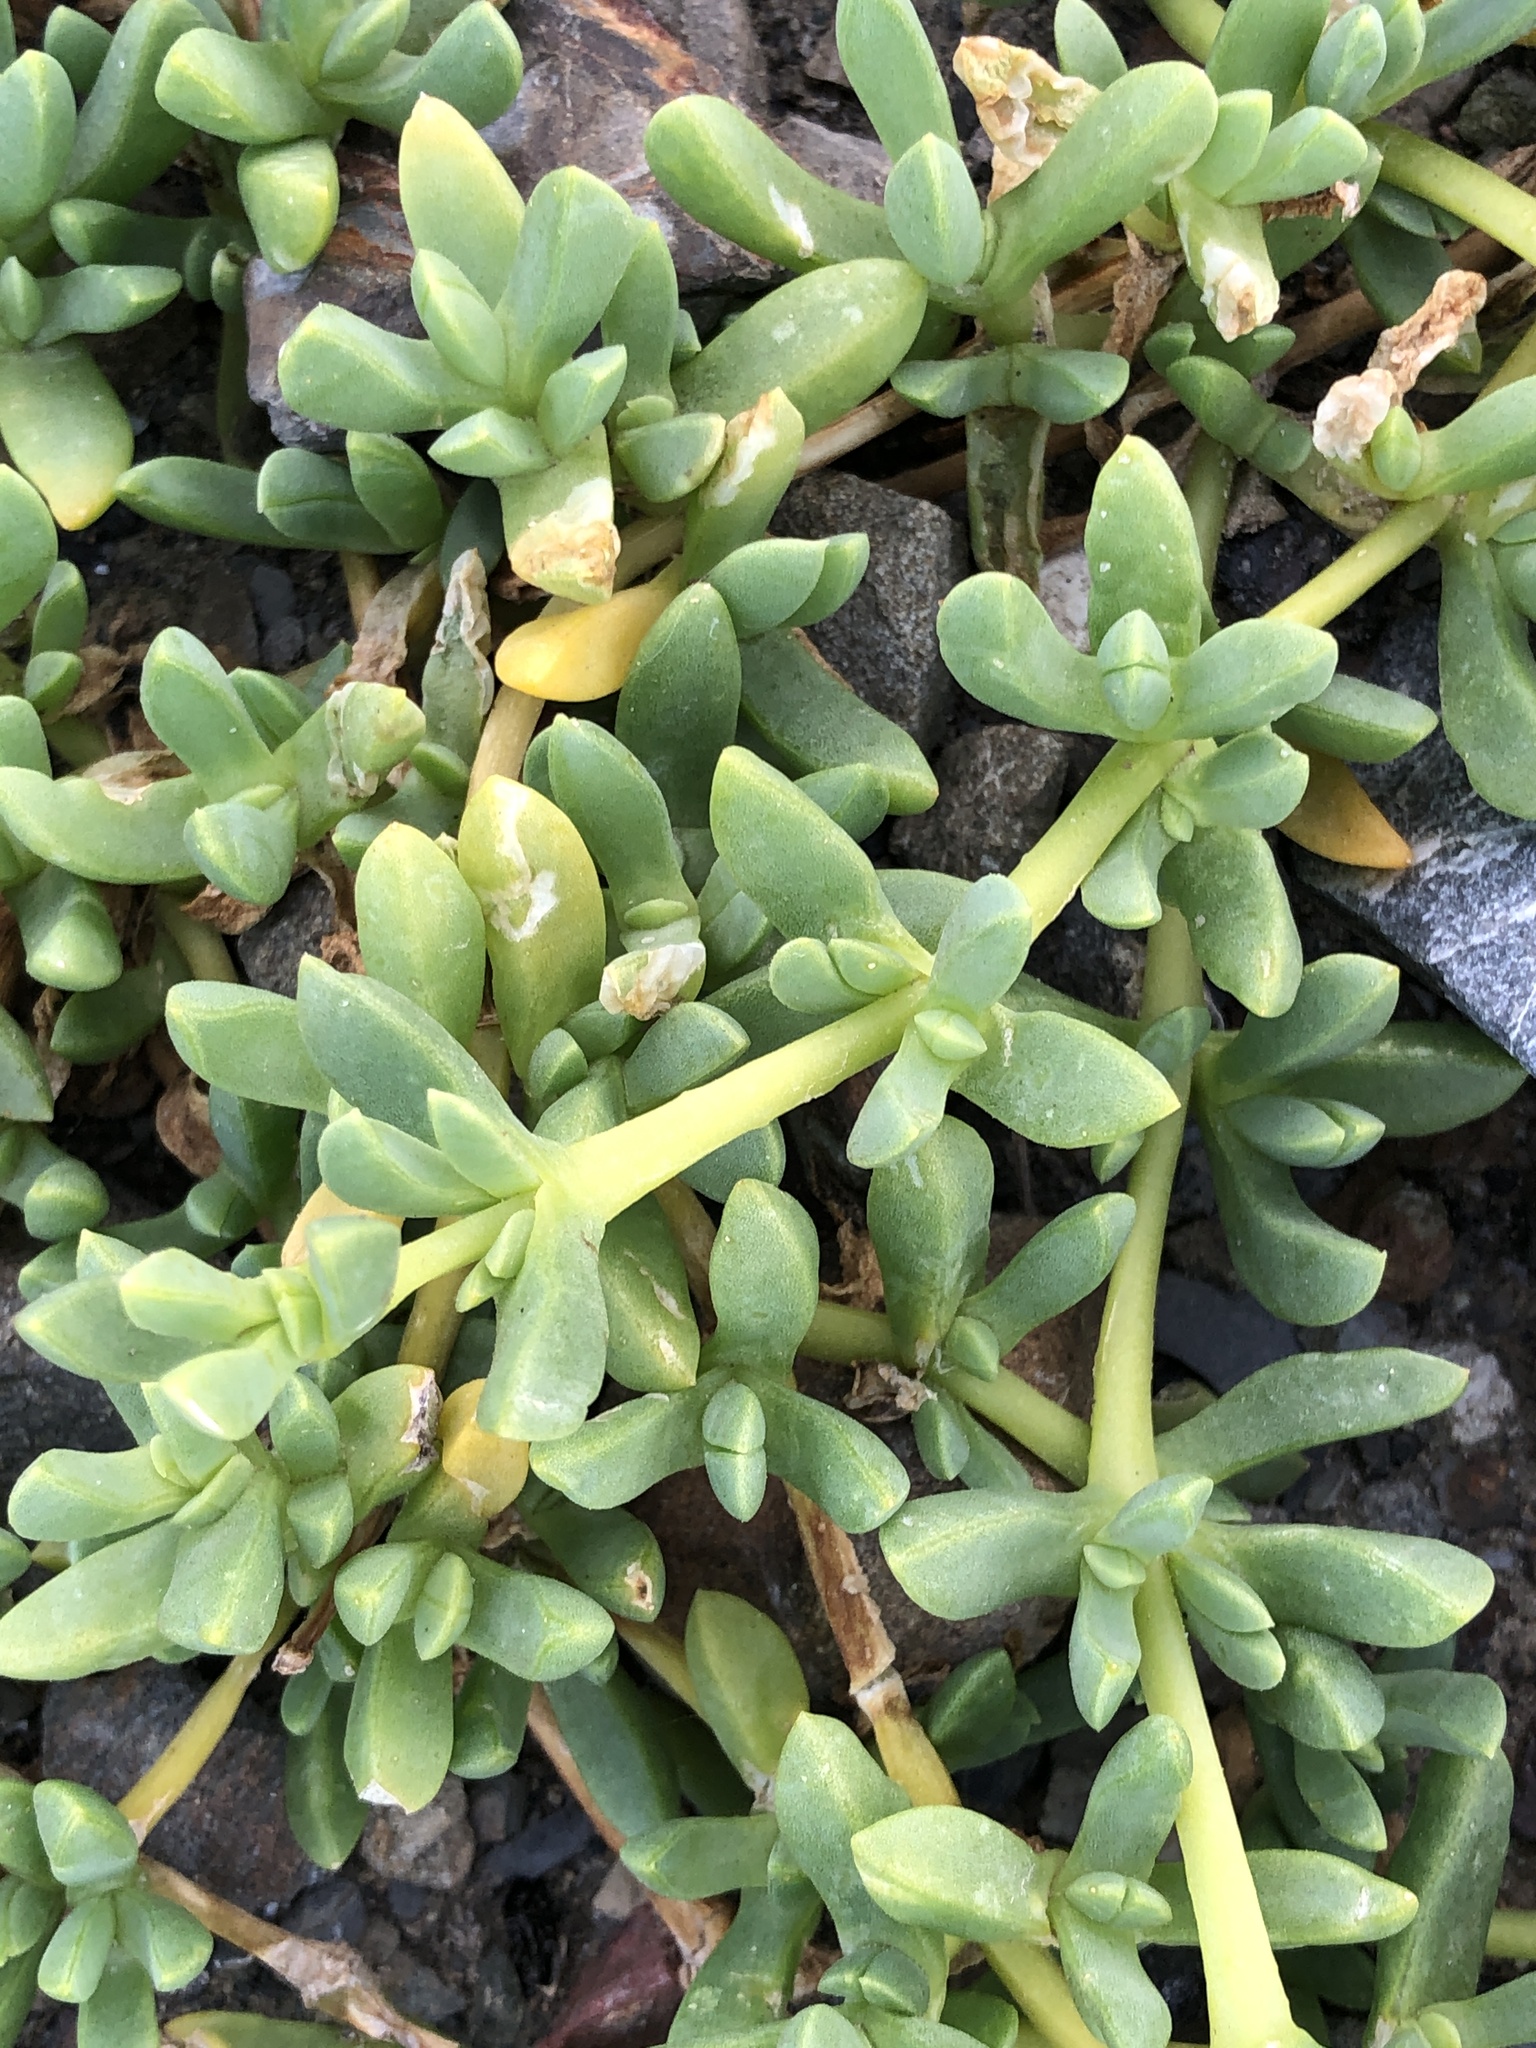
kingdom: Plantae
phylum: Tracheophyta
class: Magnoliopsida
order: Caryophyllales
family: Aizoaceae
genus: Disphyma
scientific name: Disphyma australe
